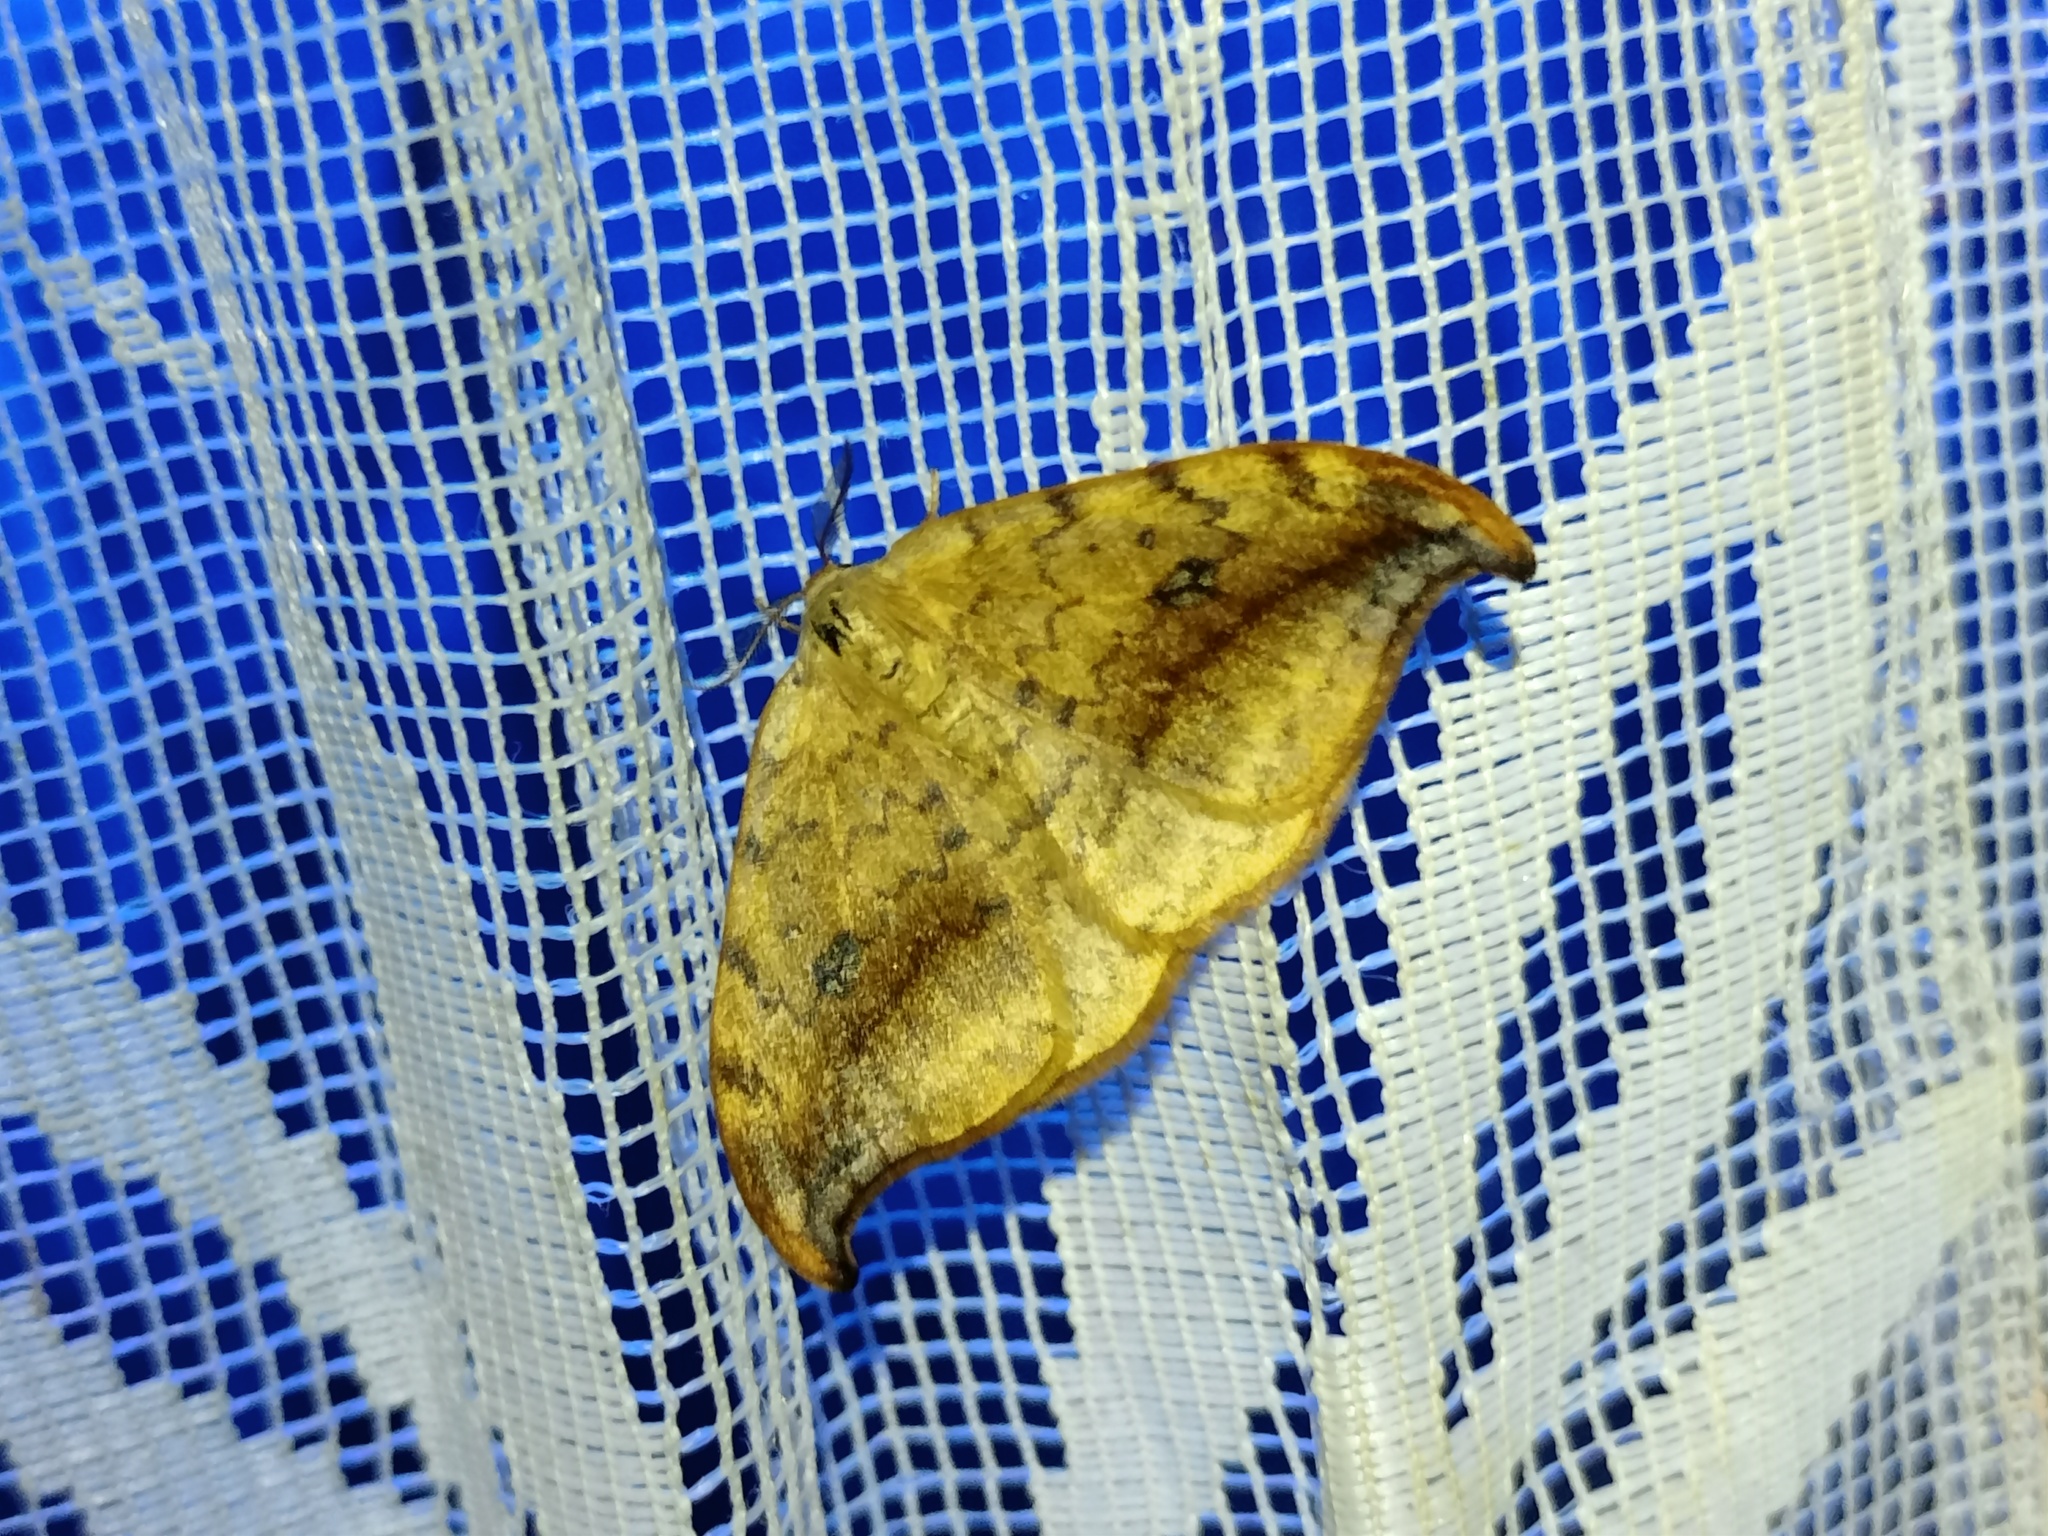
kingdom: Animalia
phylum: Arthropoda
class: Insecta
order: Lepidoptera
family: Drepanidae
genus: Drepana
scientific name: Drepana falcataria
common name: Pebble hook-tip
